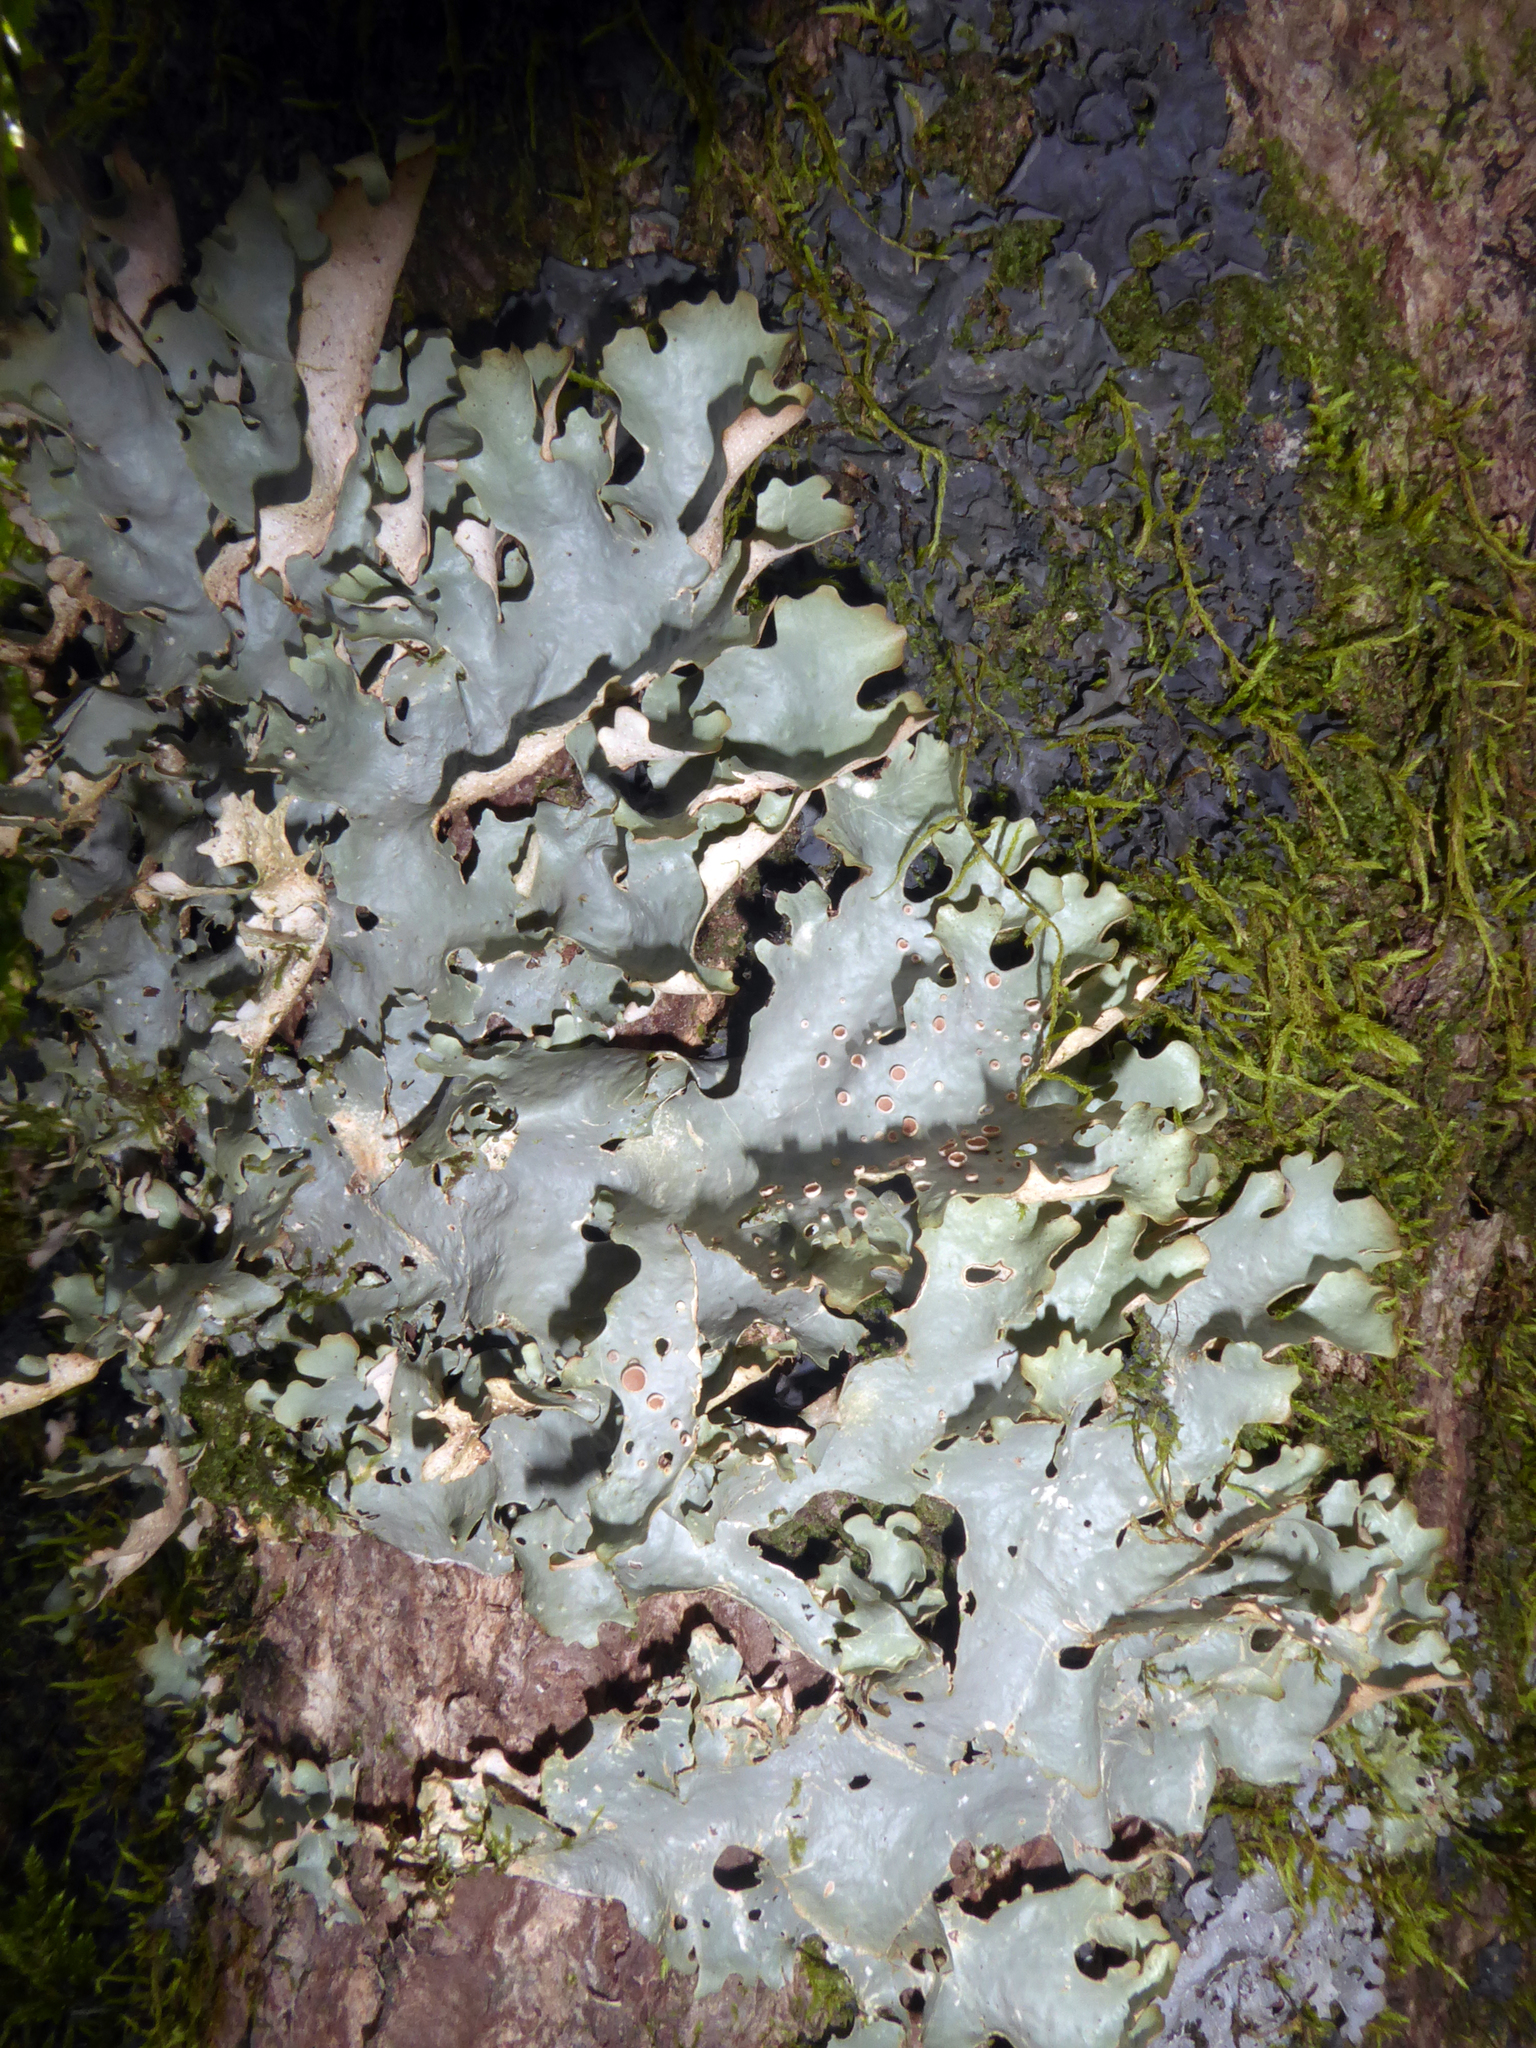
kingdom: Fungi
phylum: Ascomycota
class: Lecanoromycetes
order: Peltigerales
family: Lobariaceae
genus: Sticta
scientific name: Sticta caperata
